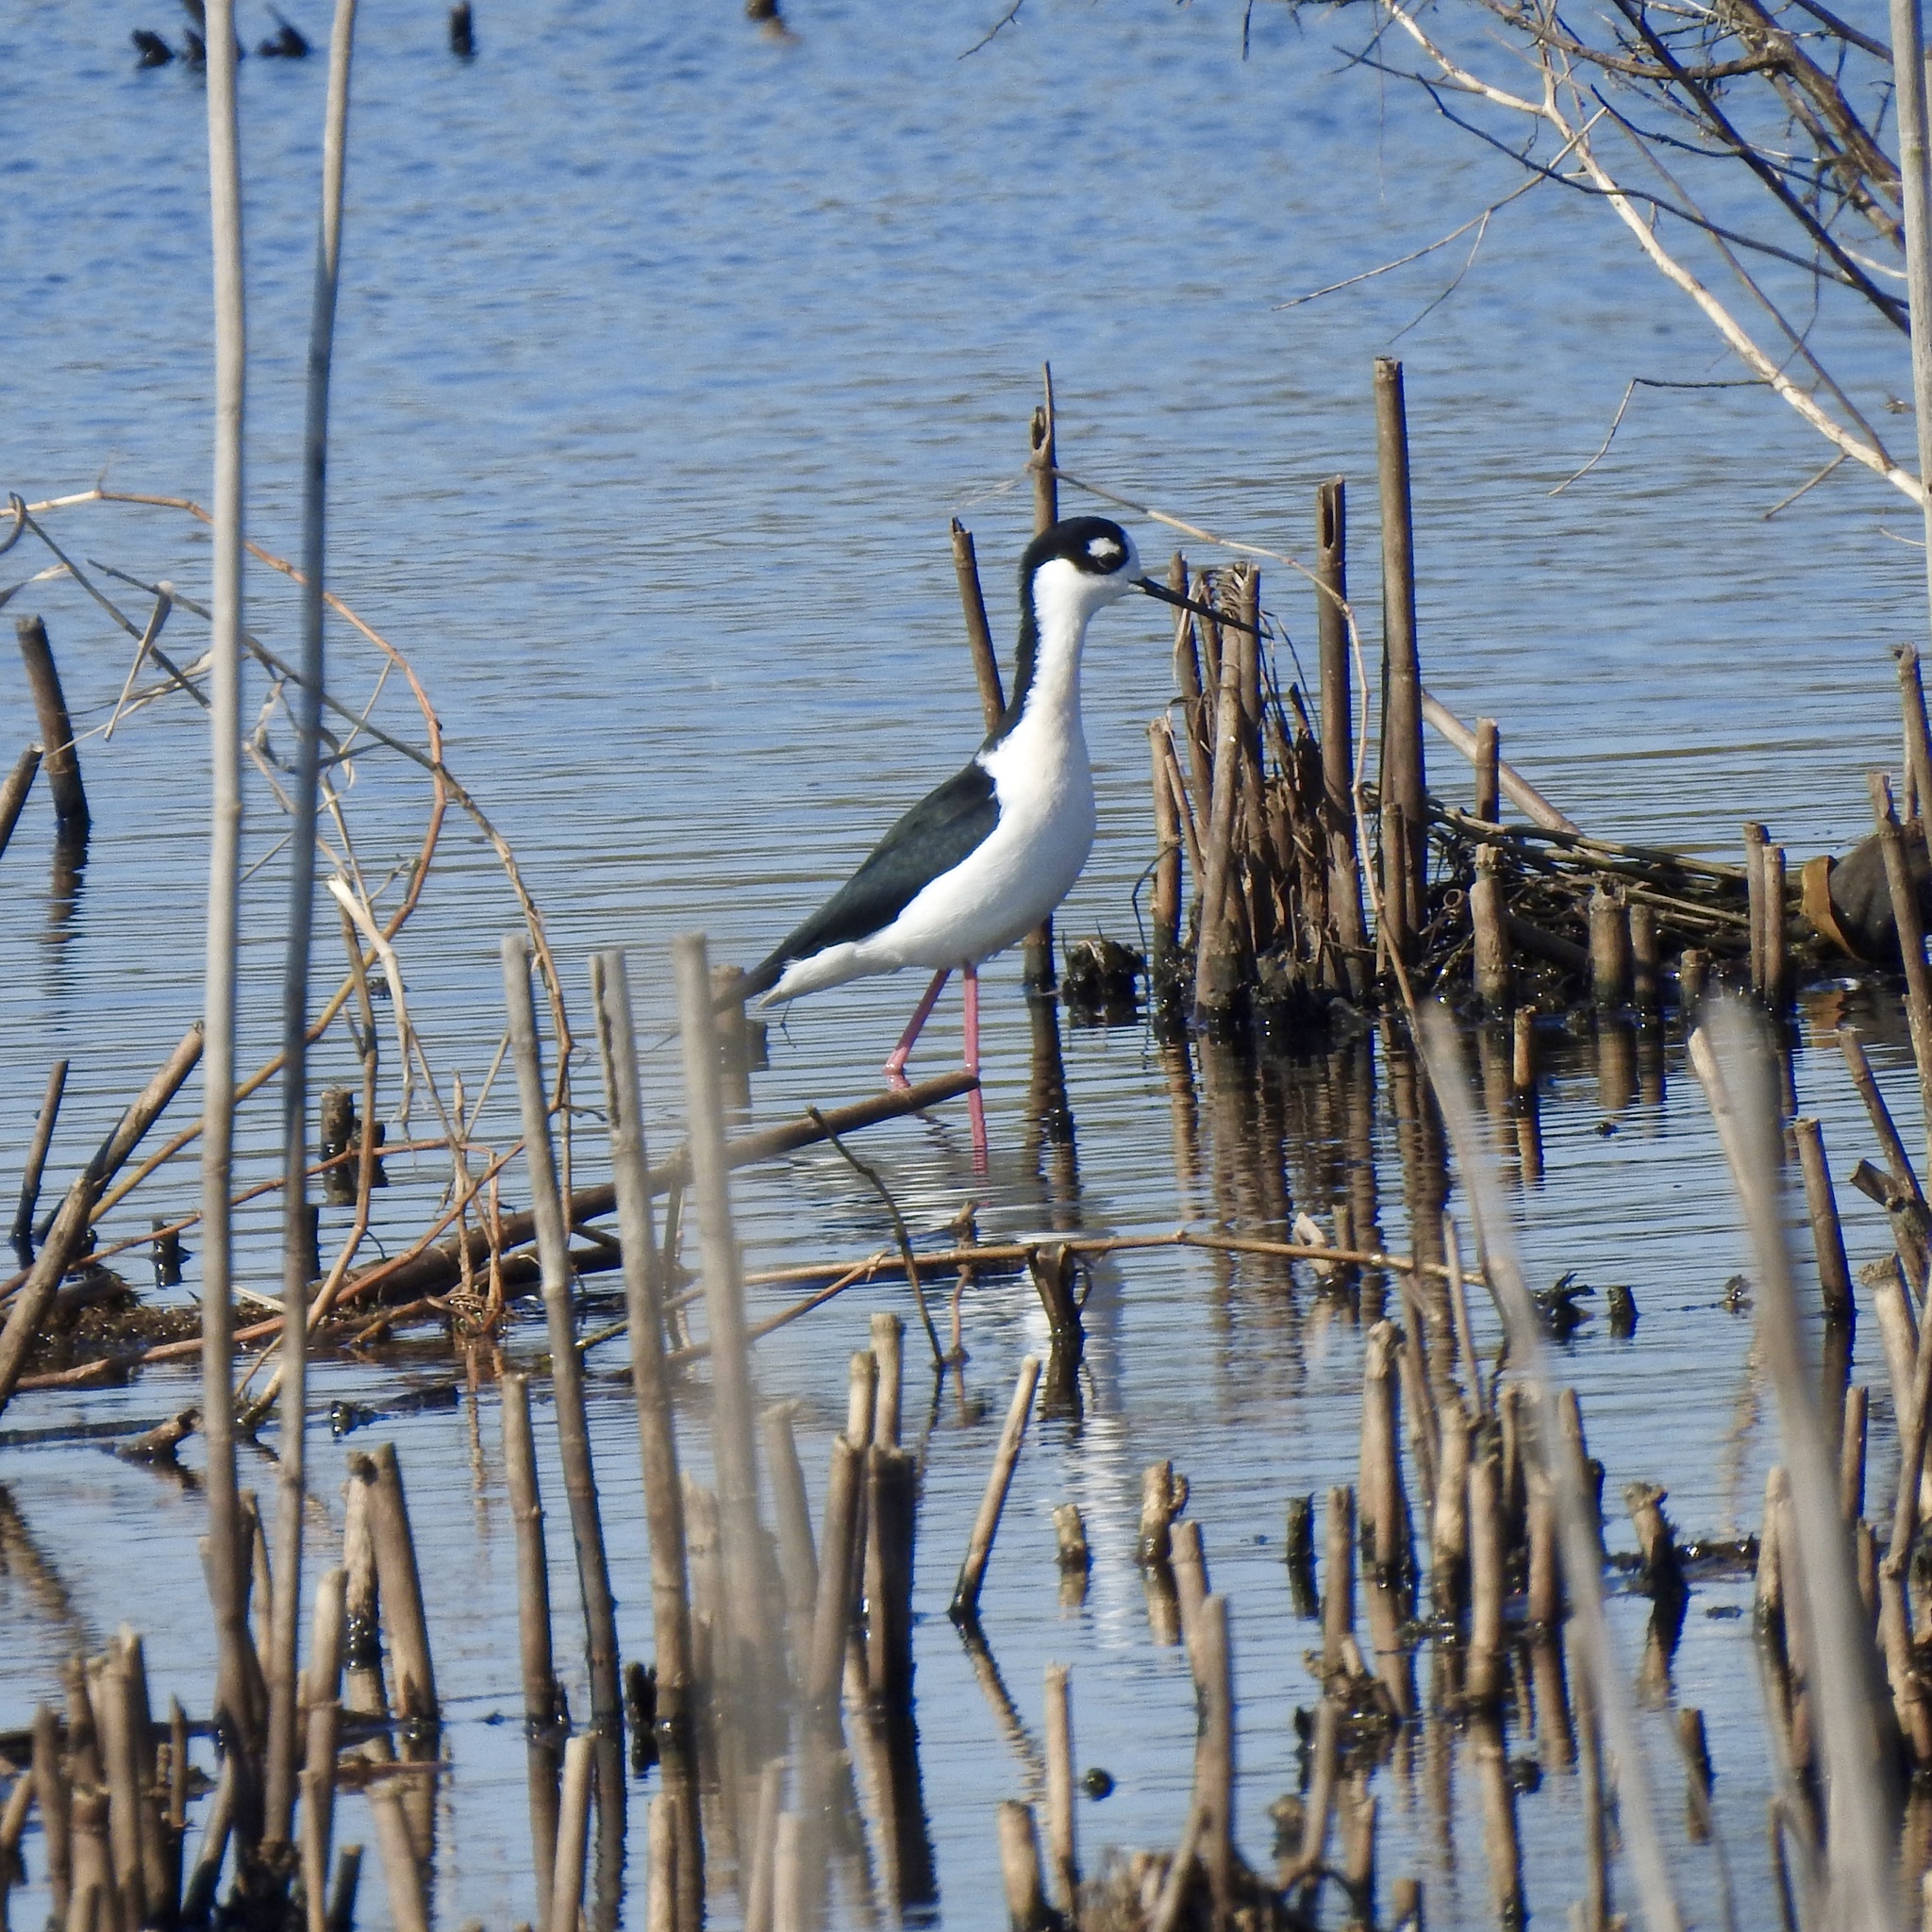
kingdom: Animalia
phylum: Chordata
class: Aves
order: Charadriiformes
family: Recurvirostridae
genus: Himantopus
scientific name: Himantopus mexicanus
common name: Black-necked stilt
